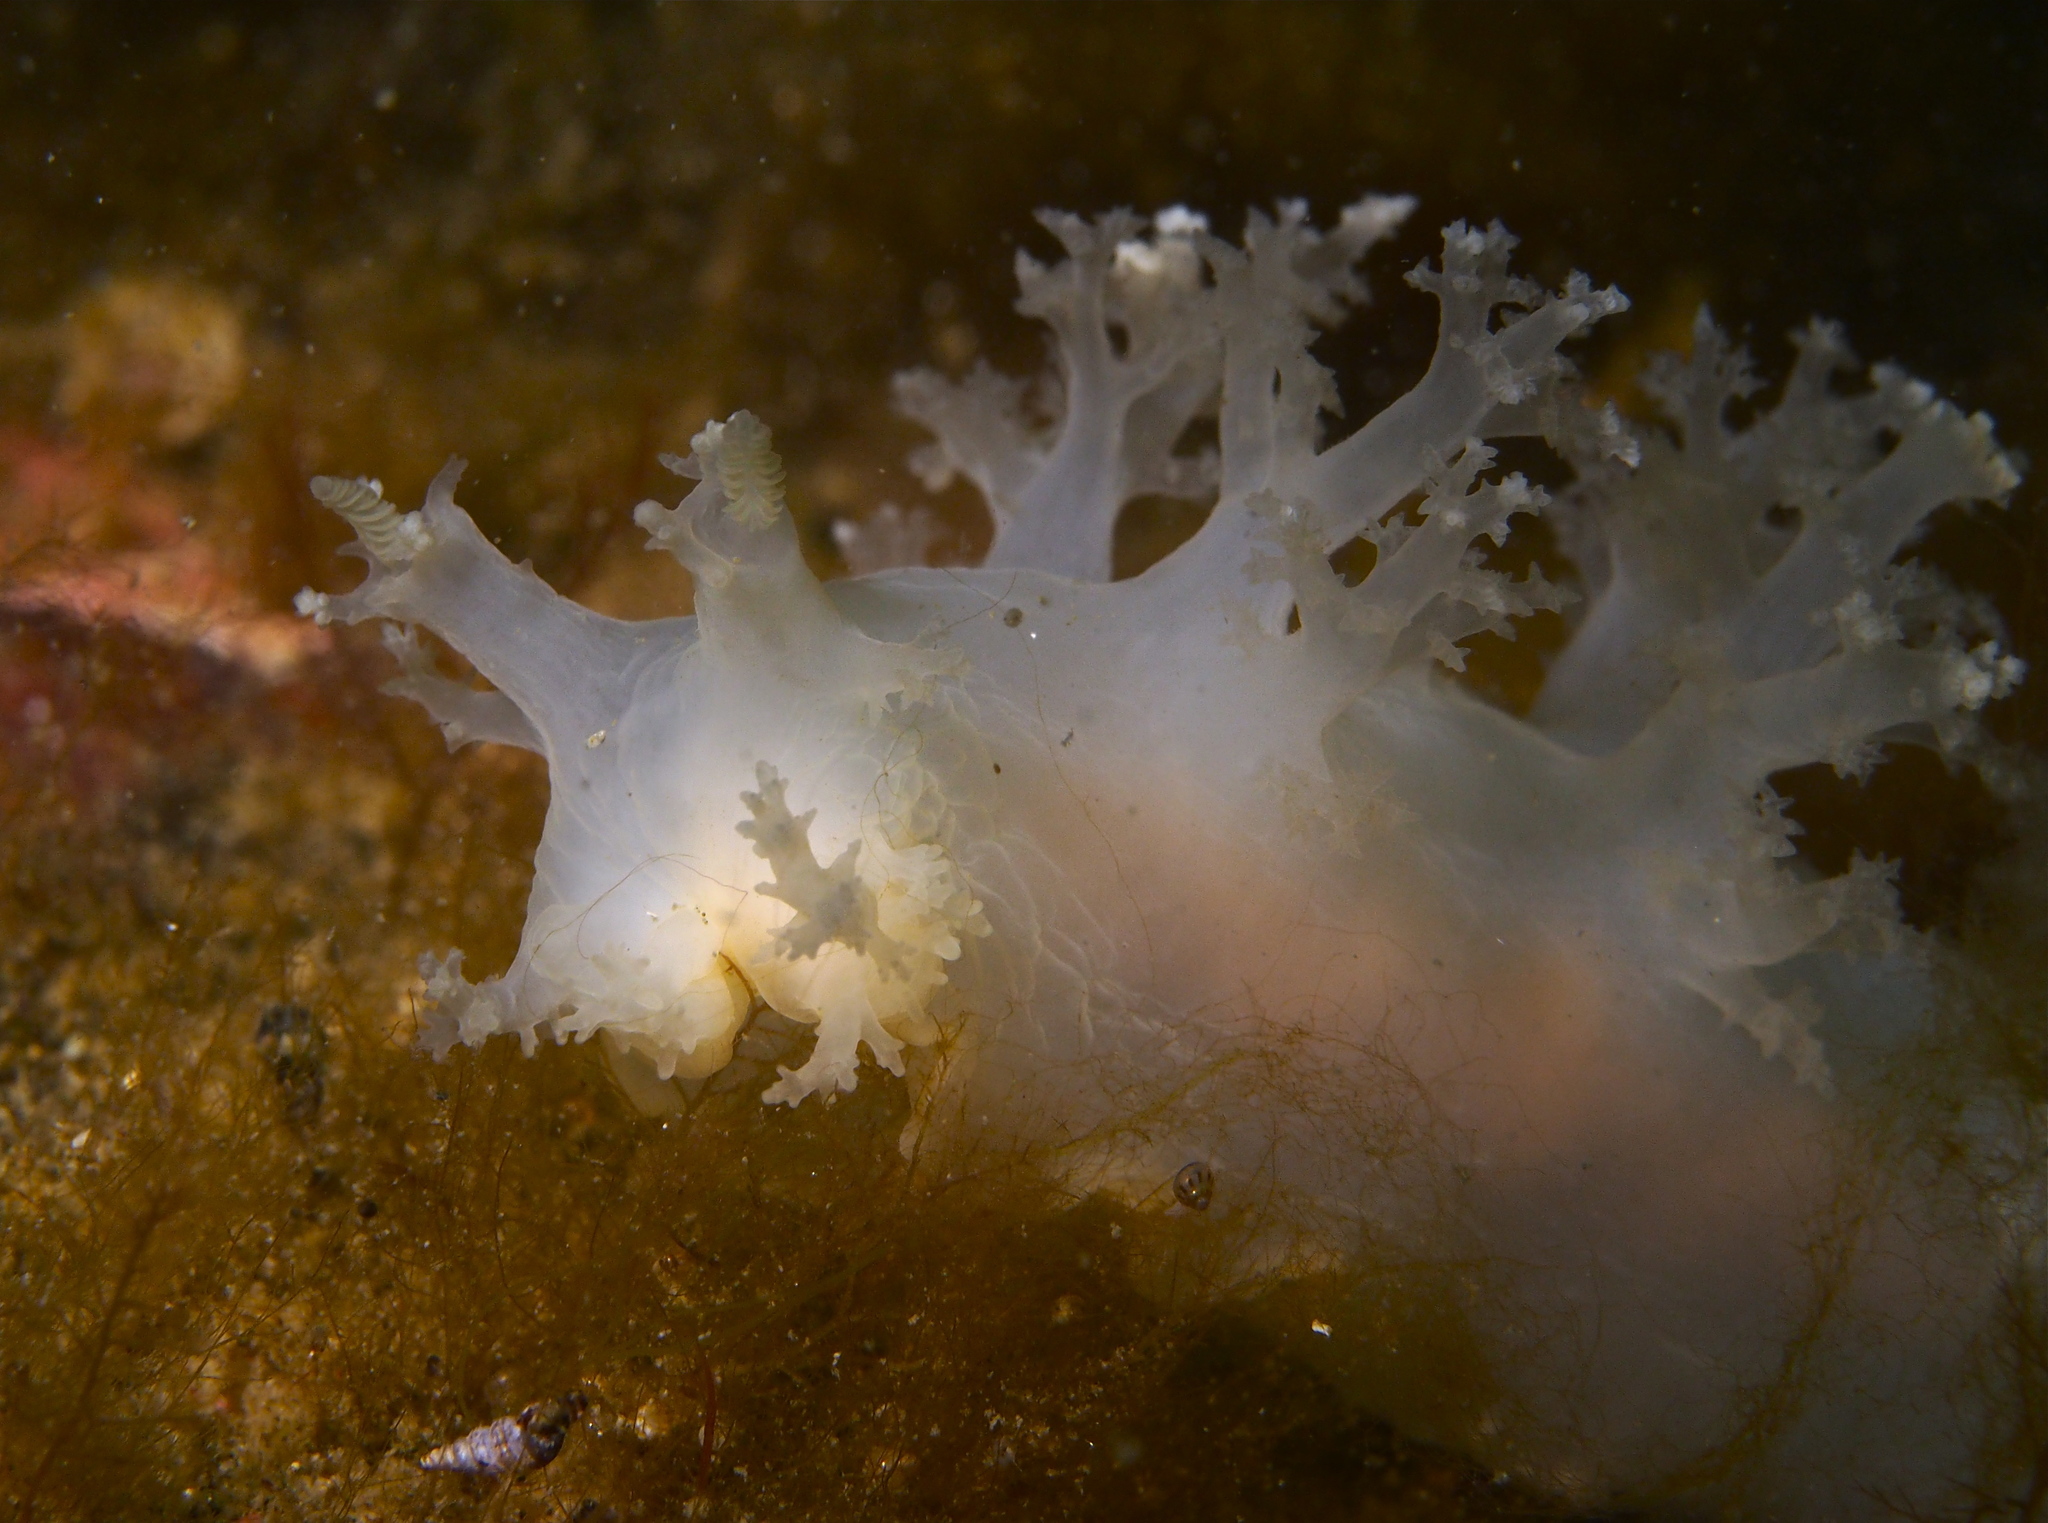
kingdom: Animalia
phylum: Mollusca
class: Gastropoda
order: Nudibranchia
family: Dendronotidae
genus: Dendronotus
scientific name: Dendronotus lacteus
